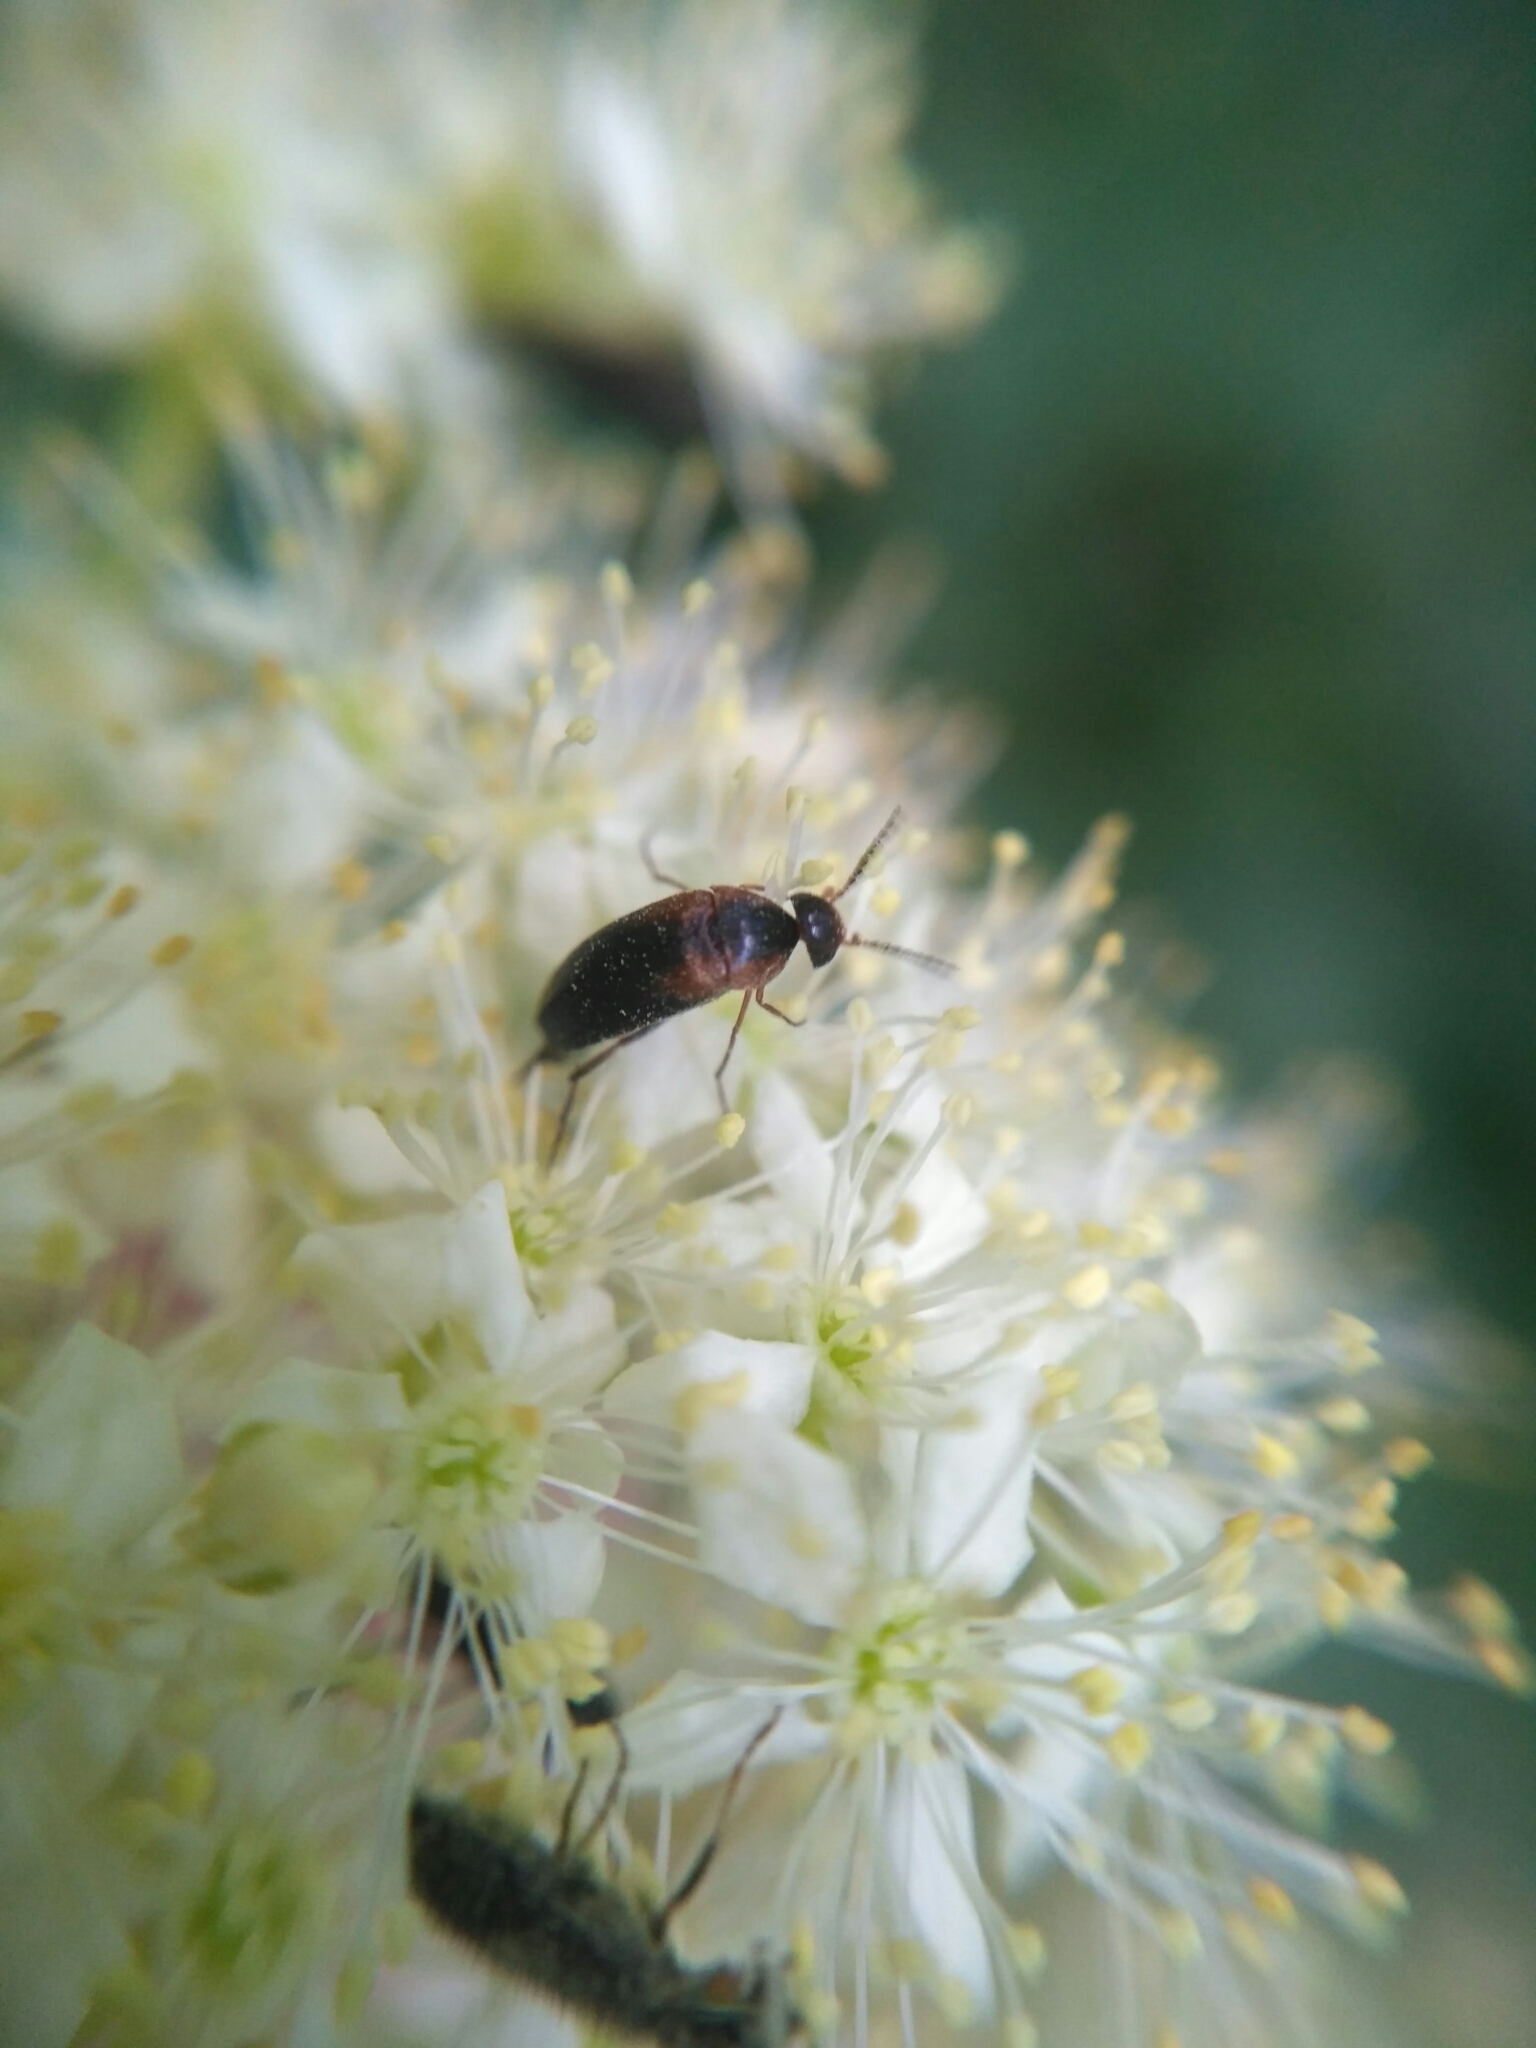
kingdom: Animalia
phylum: Arthropoda
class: Insecta
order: Coleoptera
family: Mordellidae
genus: Mordellistena
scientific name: Mordellistena humeralis
